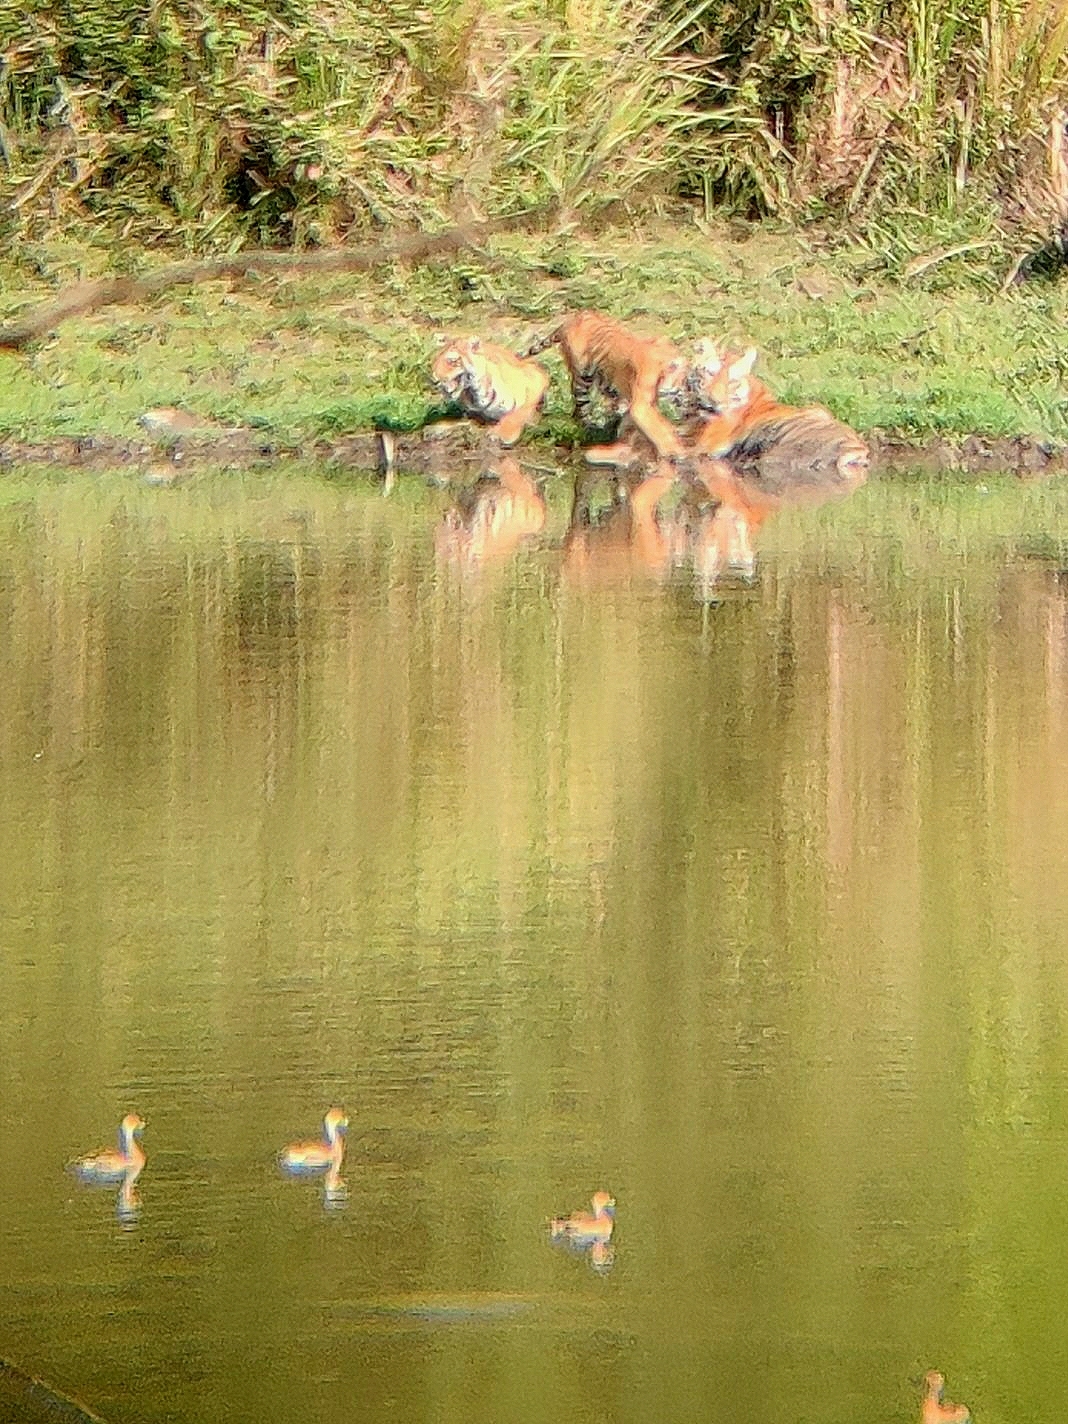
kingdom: Animalia
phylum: Chordata
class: Mammalia
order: Carnivora
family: Felidae
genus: Panthera
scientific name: Panthera tigris
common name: Tiger
